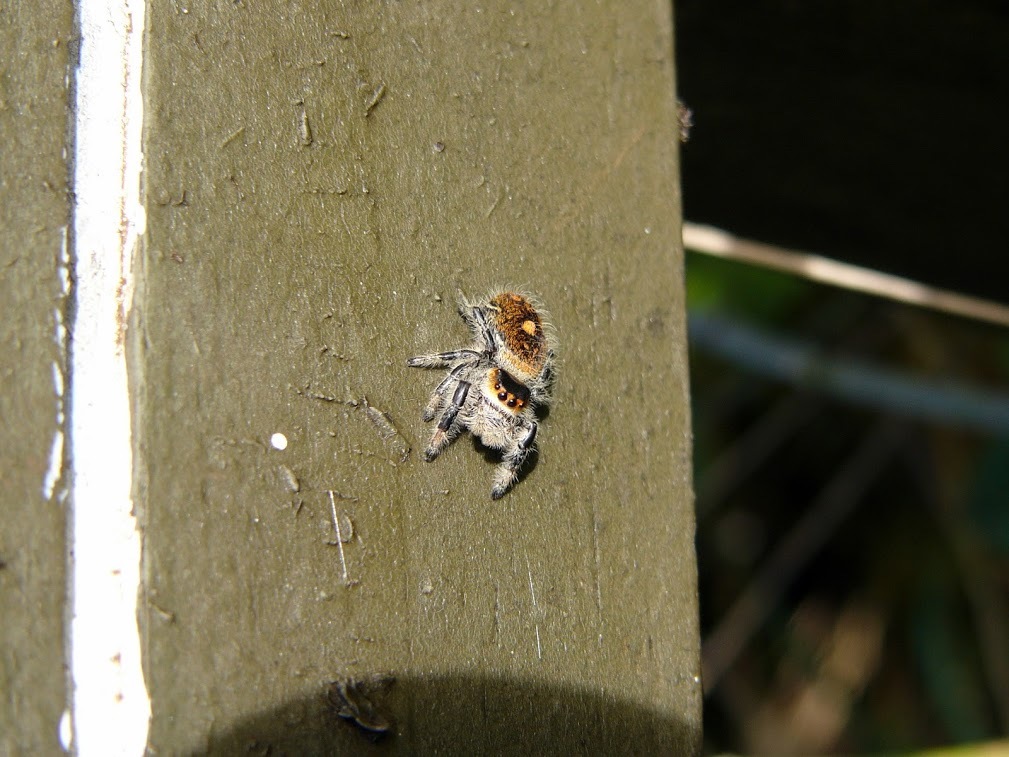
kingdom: Animalia
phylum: Arthropoda
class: Arachnida
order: Araneae
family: Salticidae
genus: Phidippus
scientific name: Phidippus regius
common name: Regal jumper
